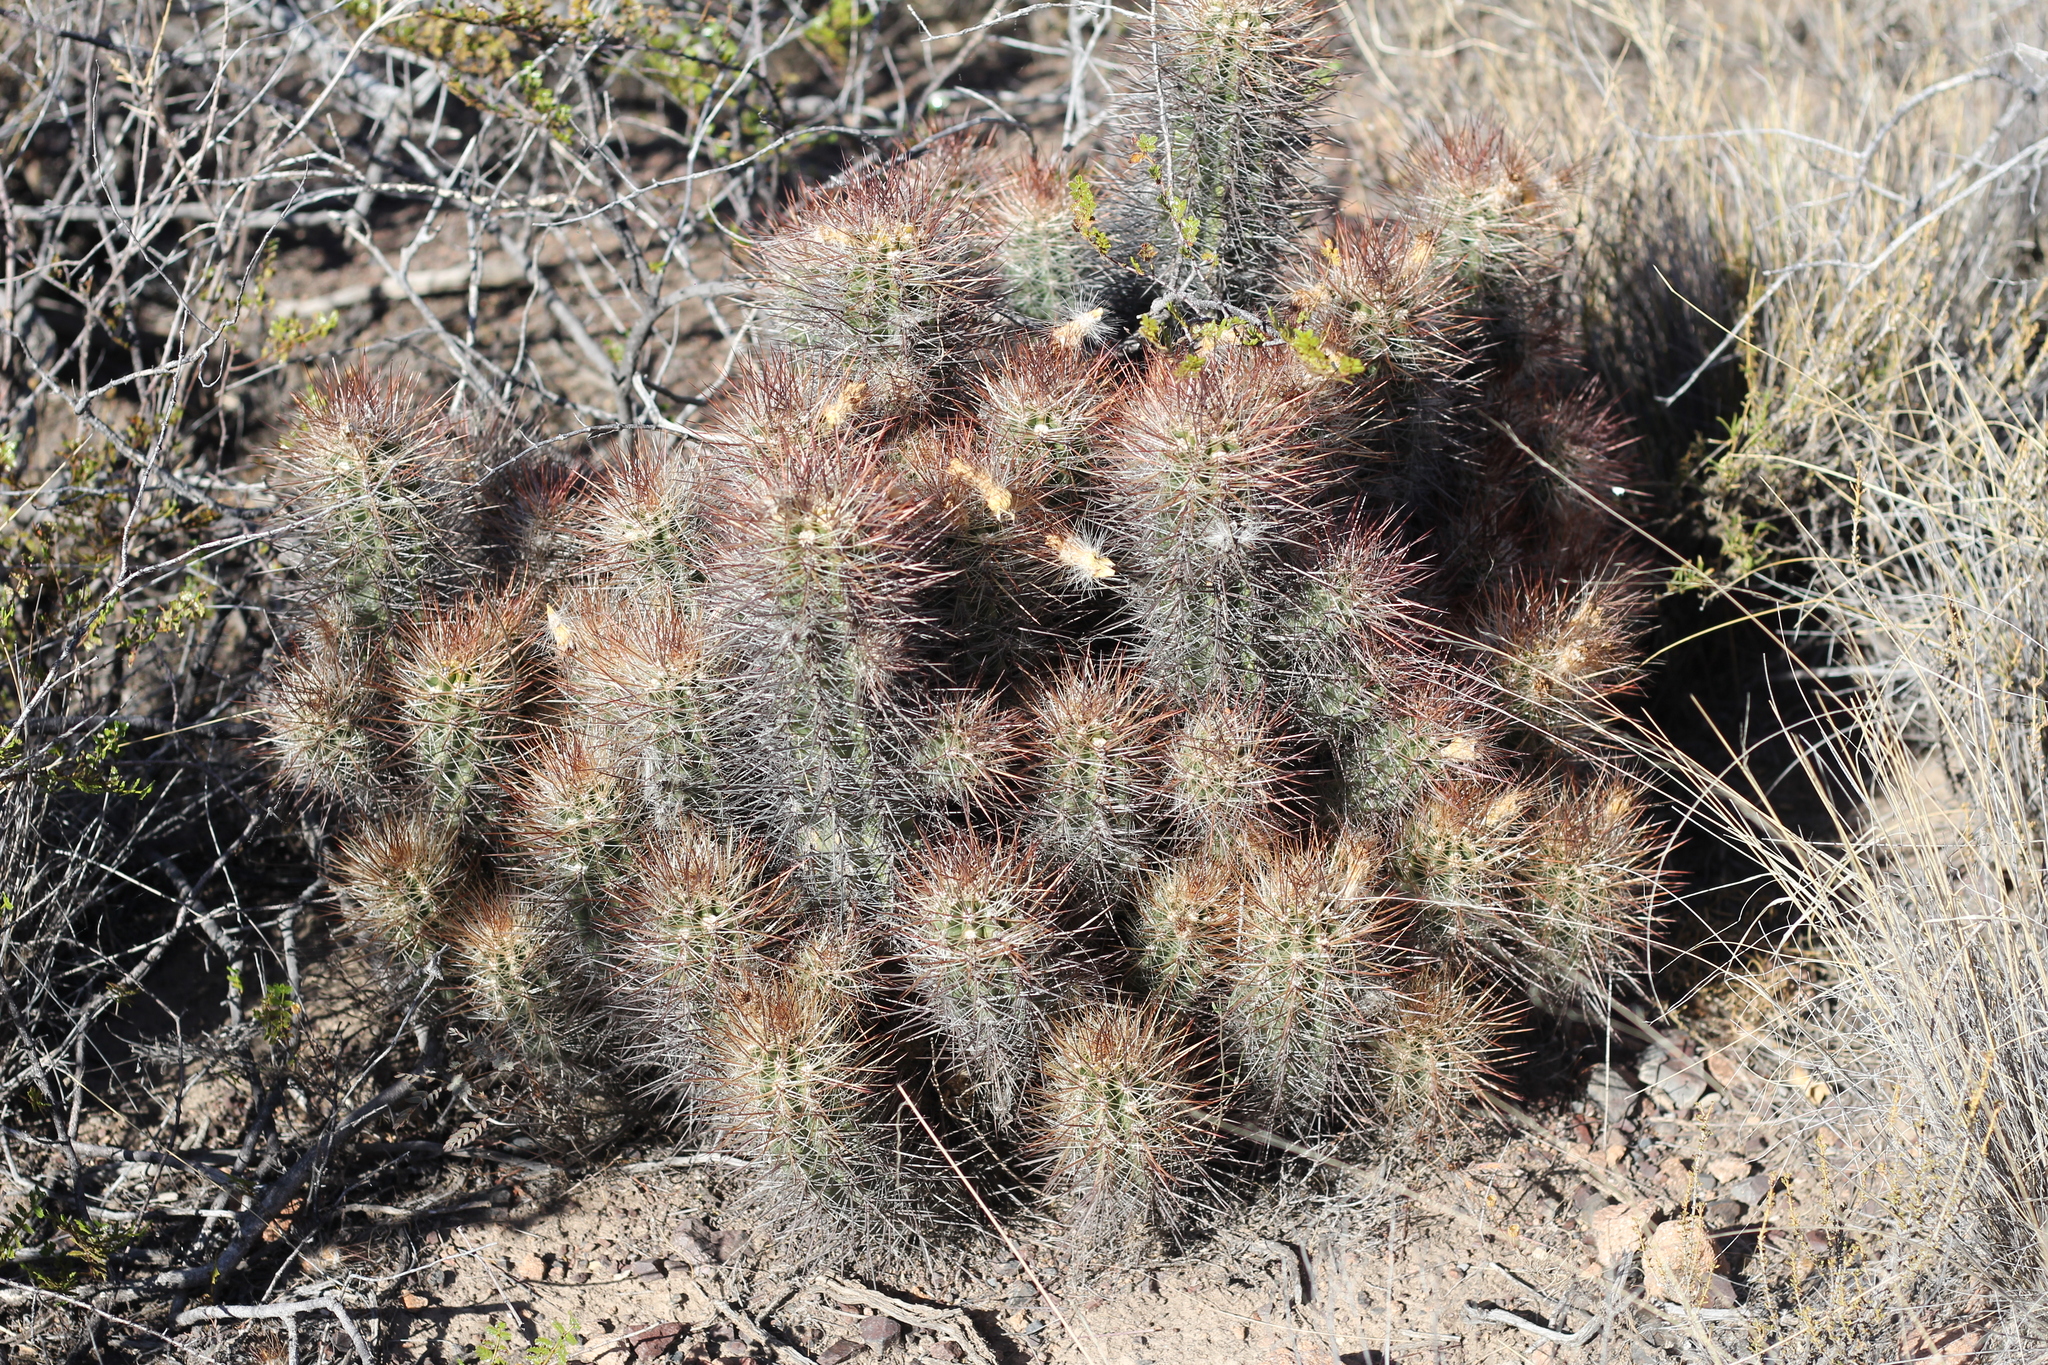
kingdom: Plantae
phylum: Tracheophyta
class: Magnoliopsida
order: Caryophyllales
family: Cactaceae
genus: Austrocactus
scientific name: Austrocactus bertinii
